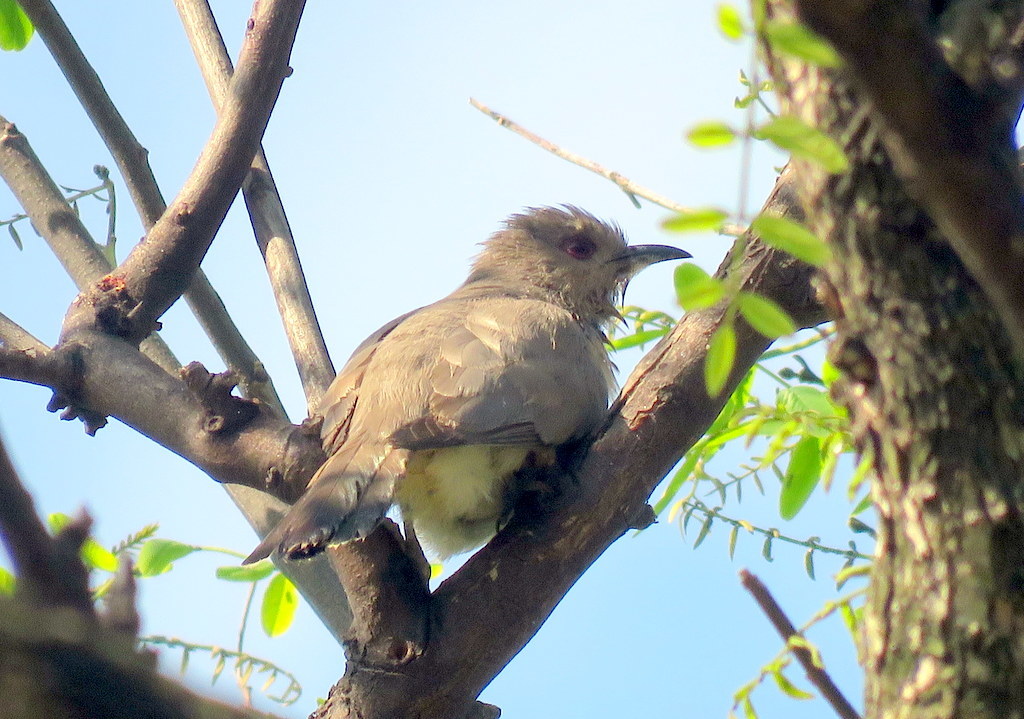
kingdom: Animalia
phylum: Chordata
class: Aves
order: Cuculiformes
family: Cuculidae
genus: Coccyzus
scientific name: Coccyzus cinereus
